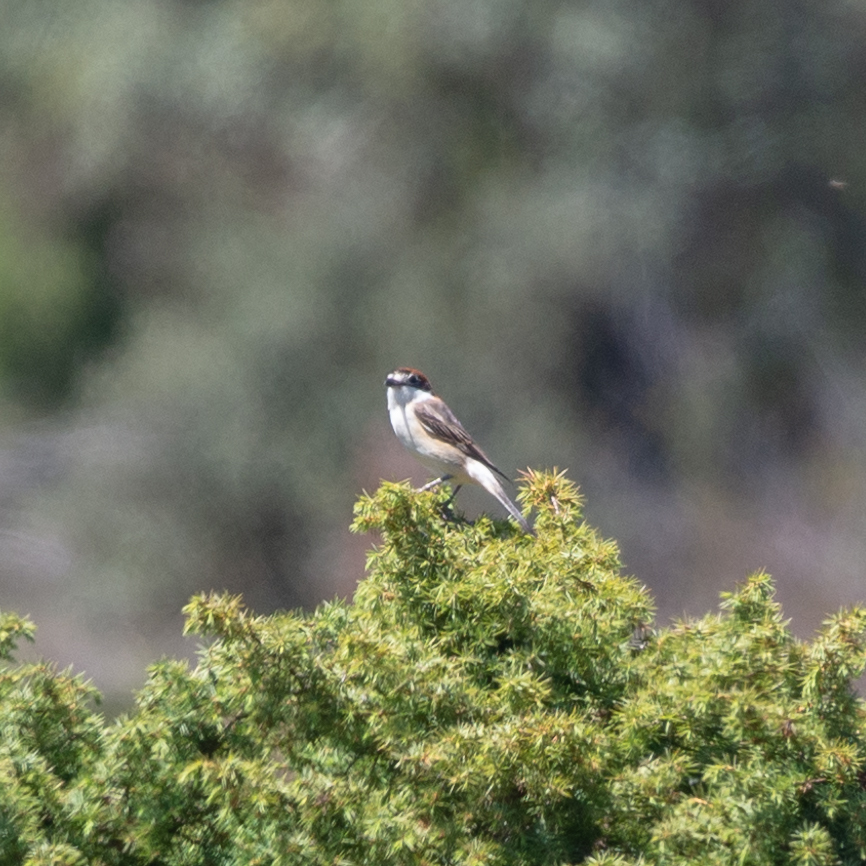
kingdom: Animalia
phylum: Chordata
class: Aves
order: Passeriformes
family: Laniidae
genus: Lanius
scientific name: Lanius senator
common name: Woodchat shrike
